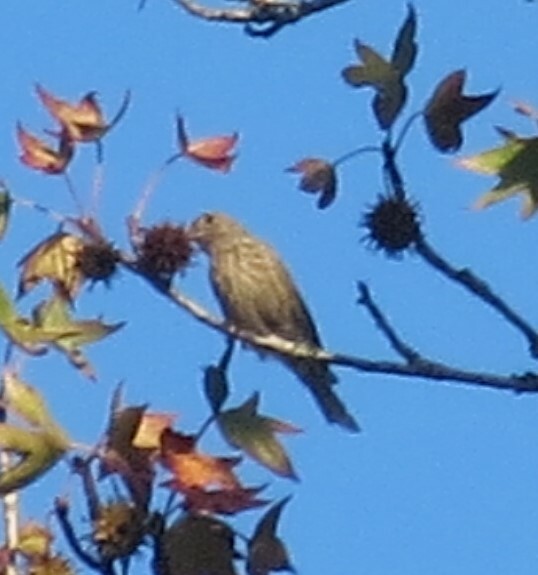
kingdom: Animalia
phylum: Chordata
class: Aves
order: Passeriformes
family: Fringillidae
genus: Haemorhous
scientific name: Haemorhous mexicanus
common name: House finch
